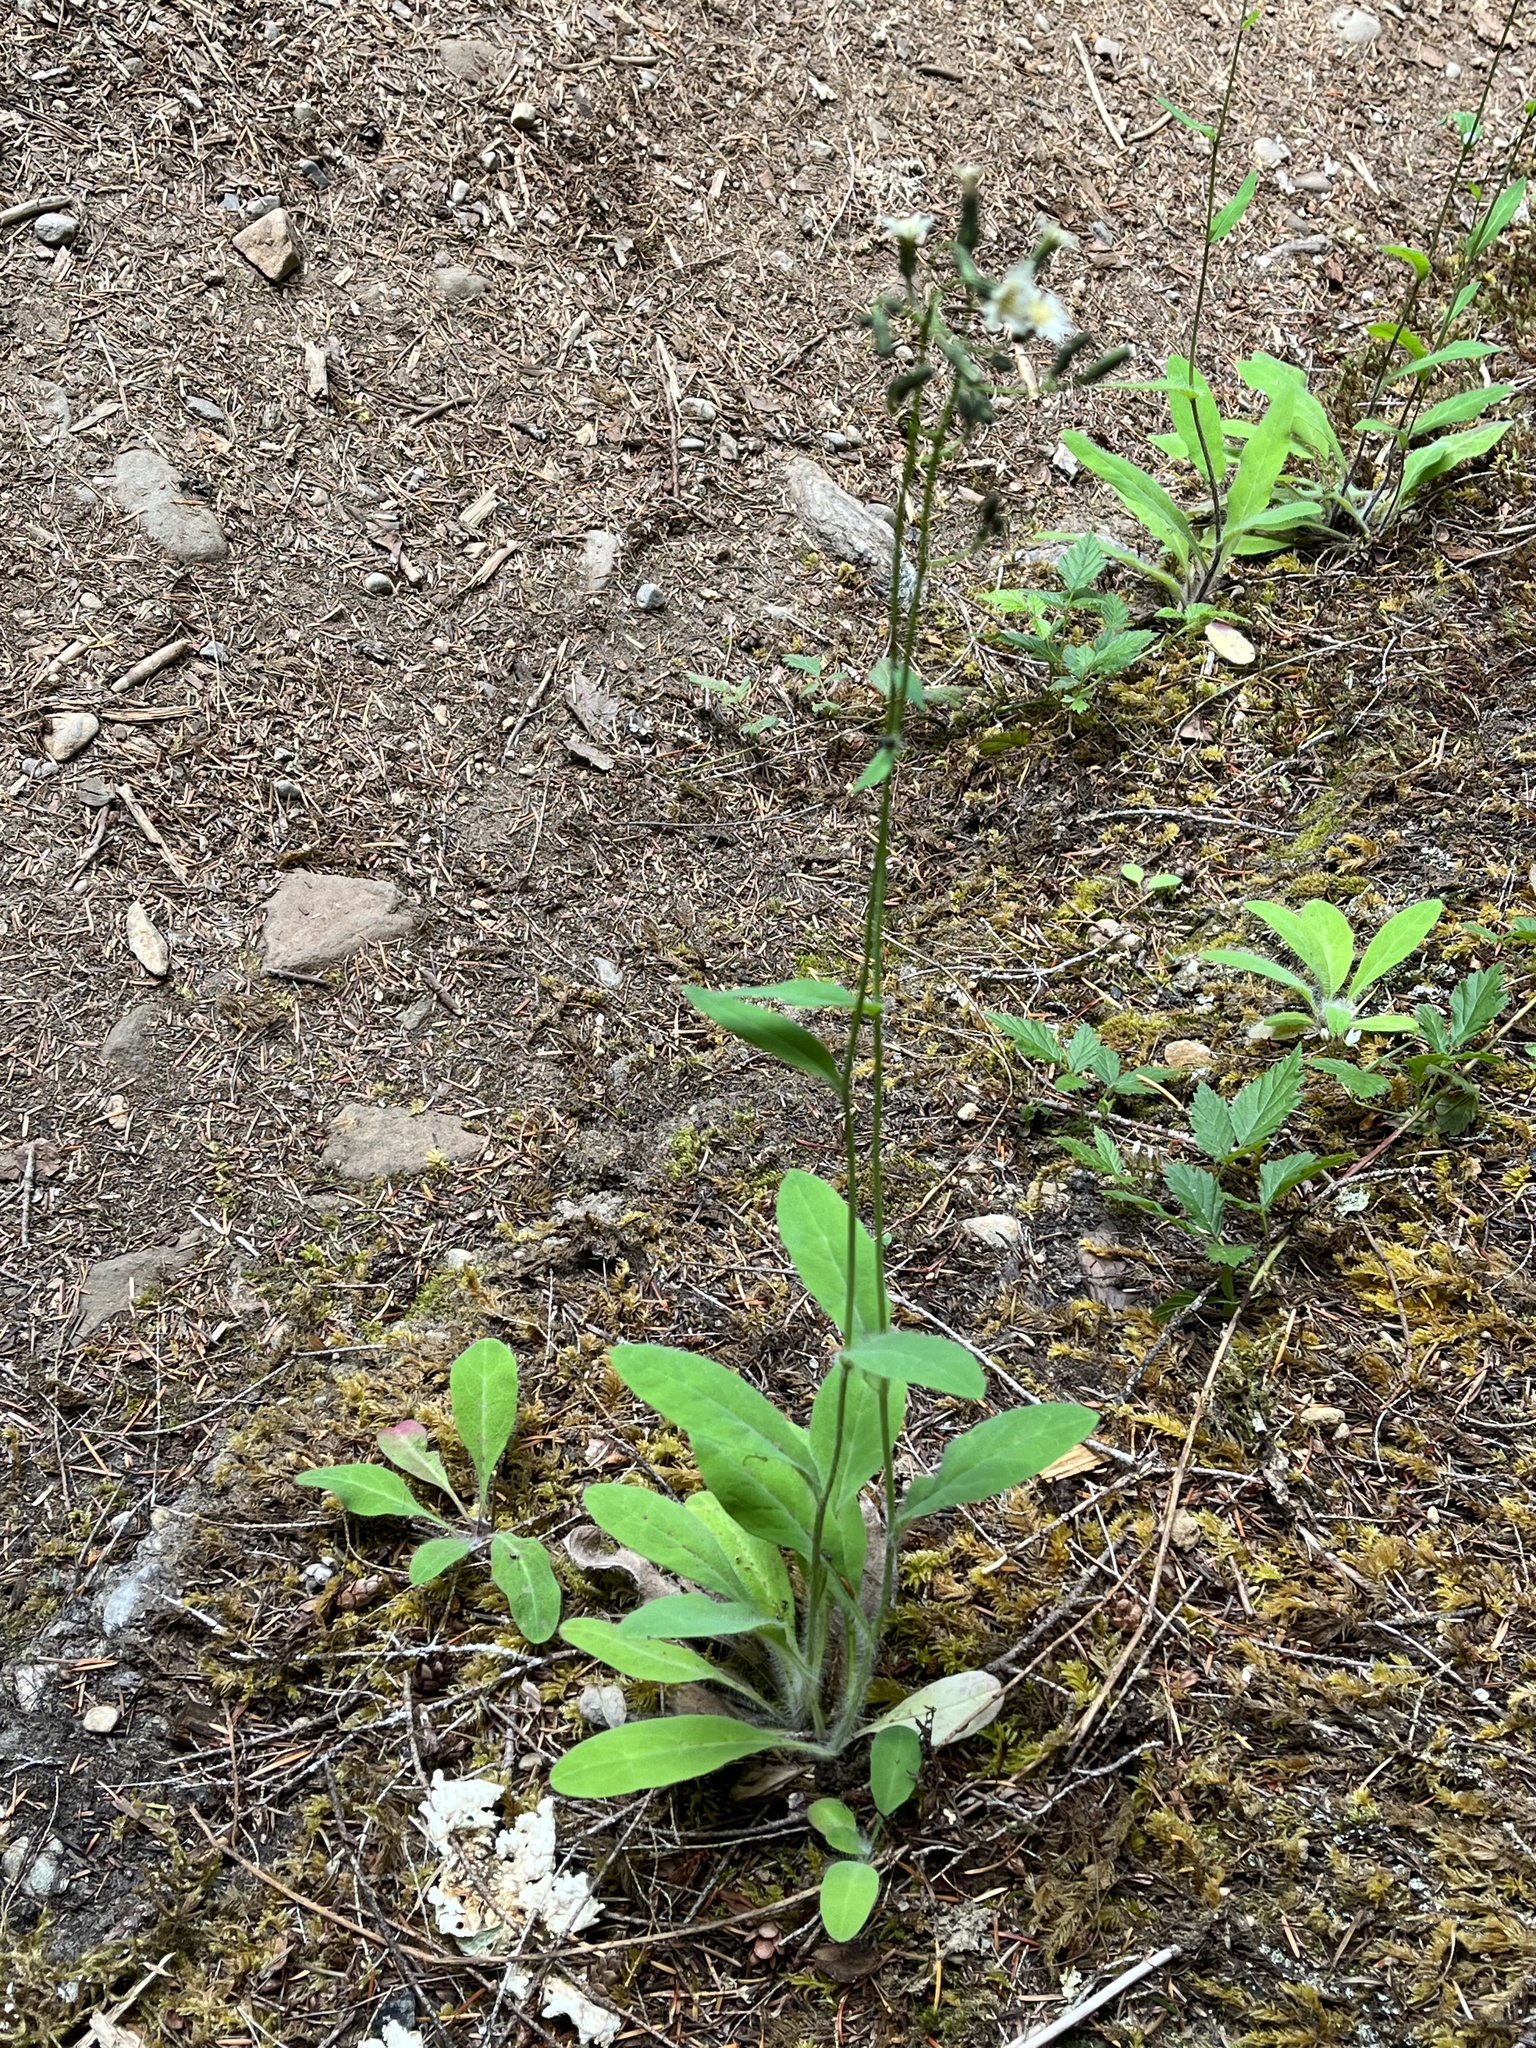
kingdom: Plantae
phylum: Tracheophyta
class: Magnoliopsida
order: Asterales
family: Asteraceae
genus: Hieracium
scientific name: Hieracium albiflorum
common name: White hawkweed
